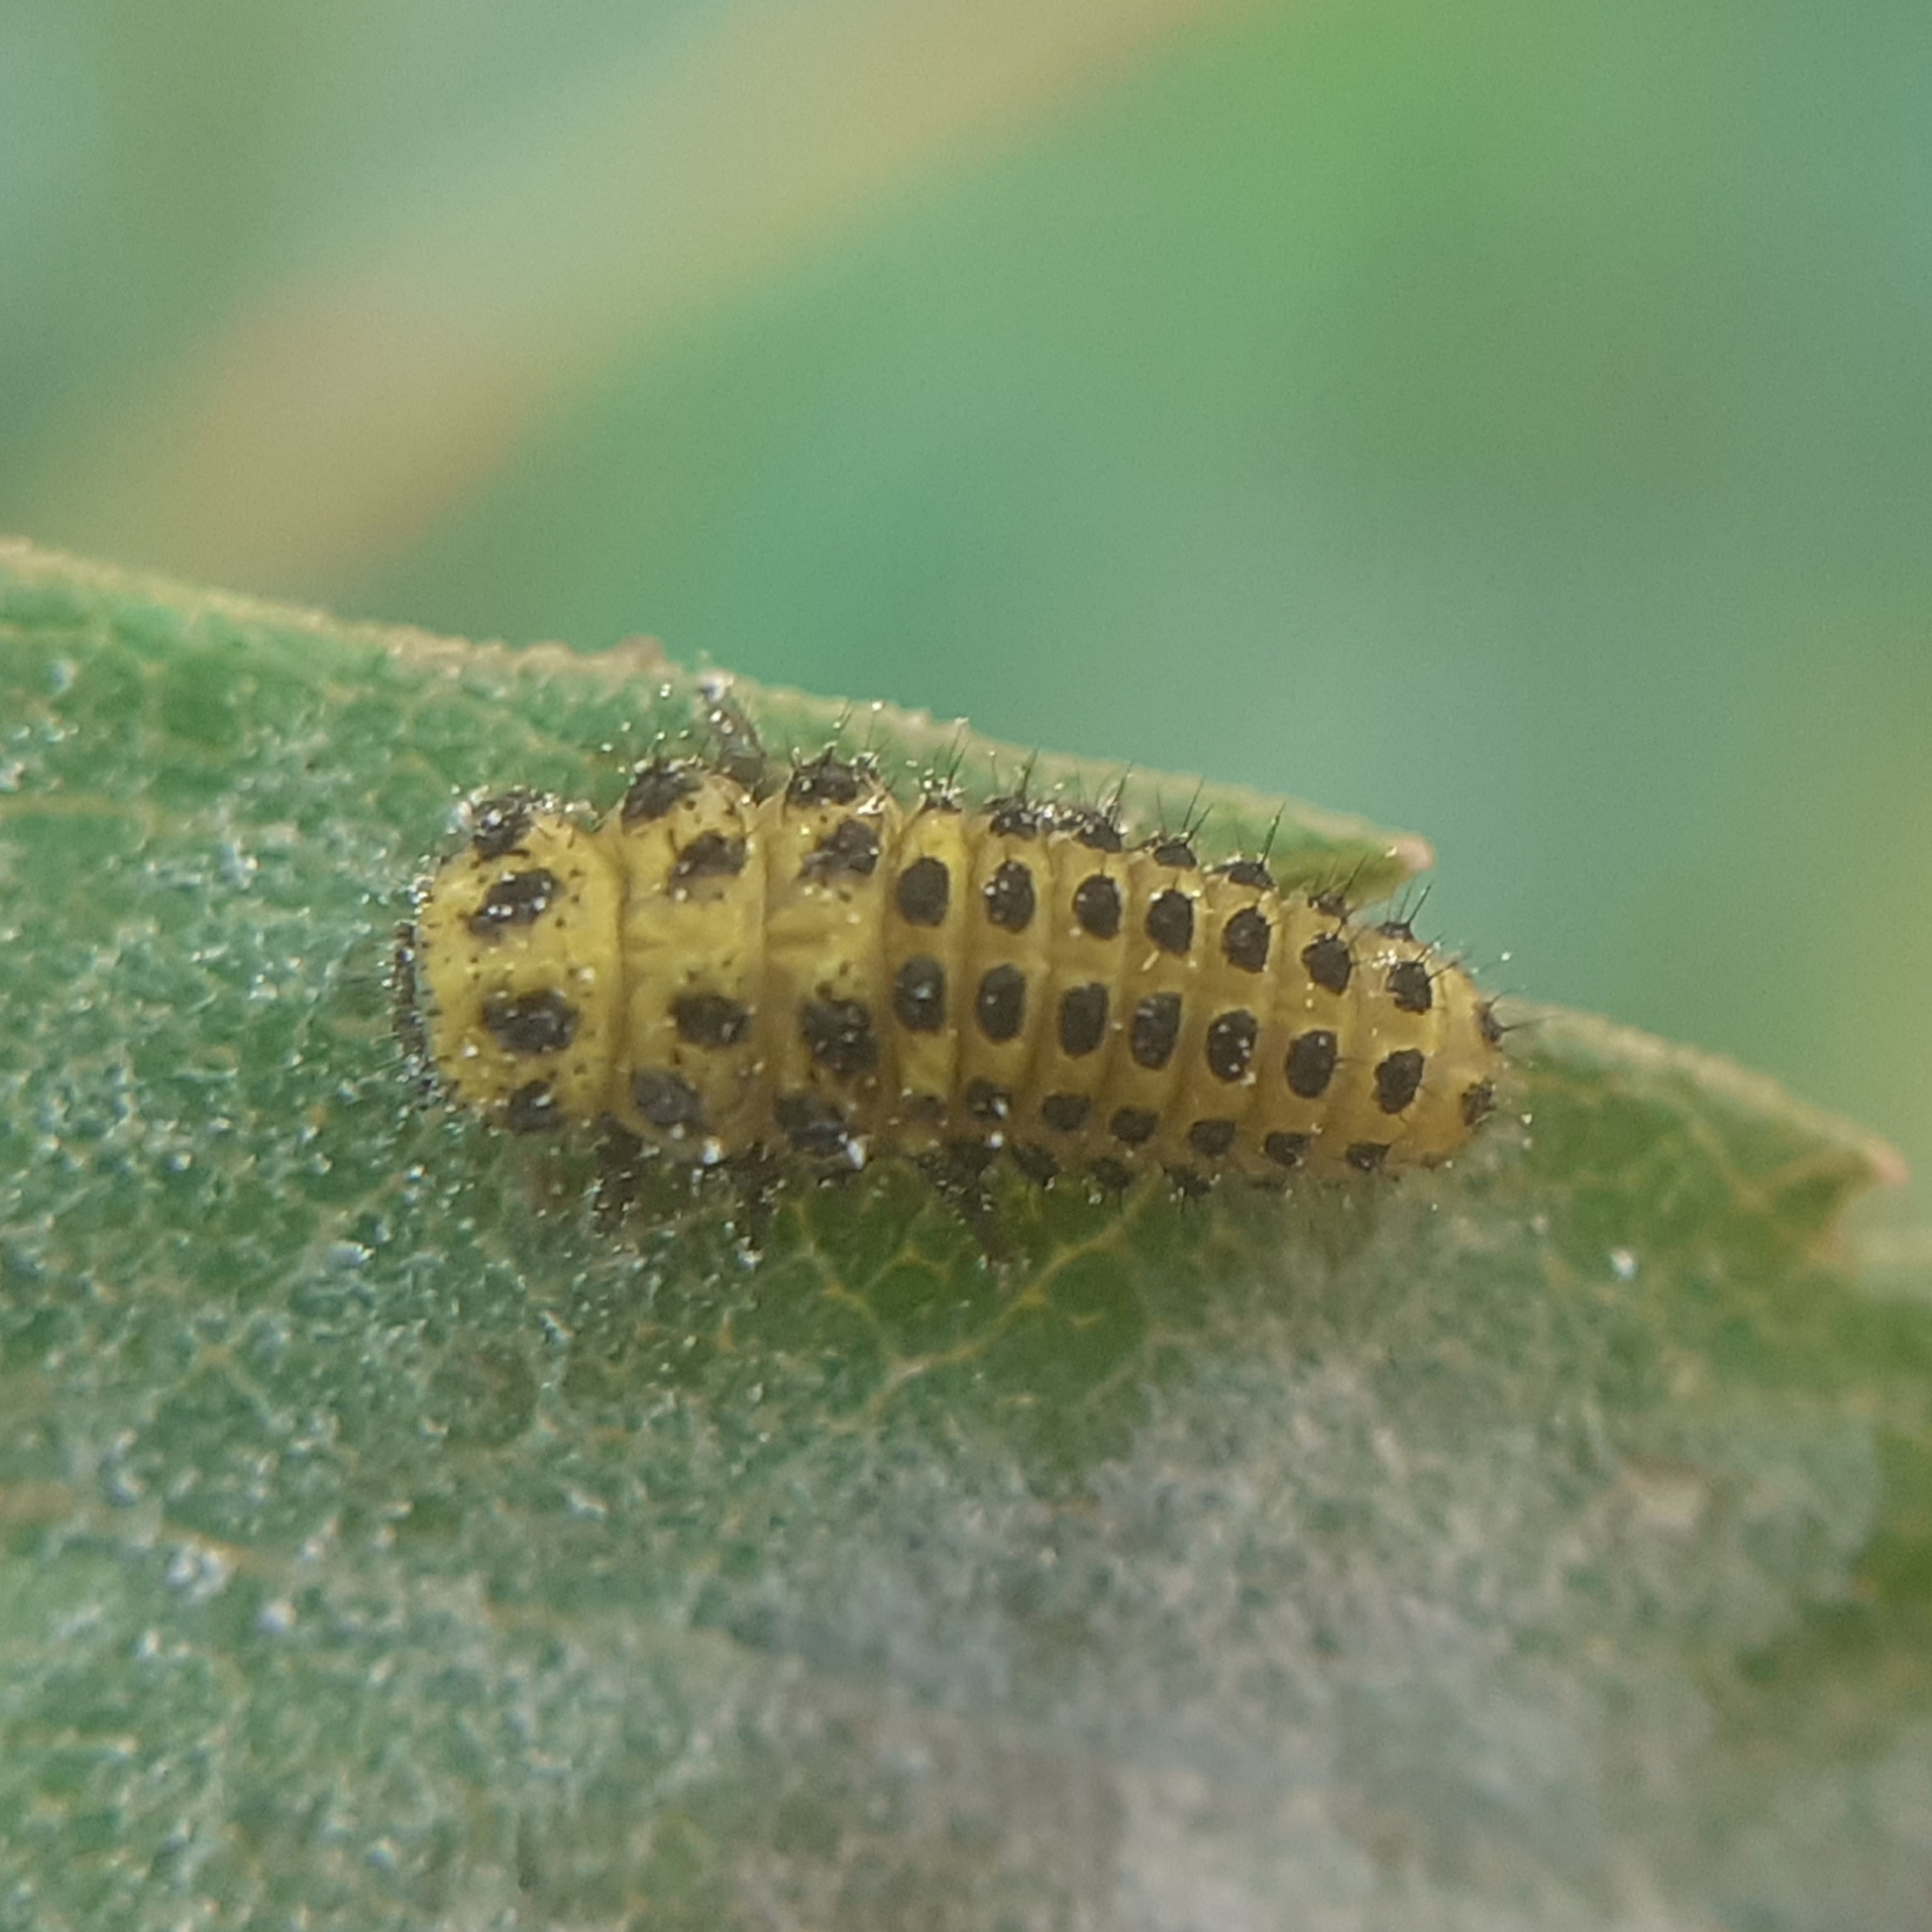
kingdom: Animalia
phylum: Arthropoda
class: Insecta
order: Coleoptera
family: Coccinellidae
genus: Psyllobora
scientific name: Psyllobora vigintiduopunctata
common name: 22-spot ladybird
